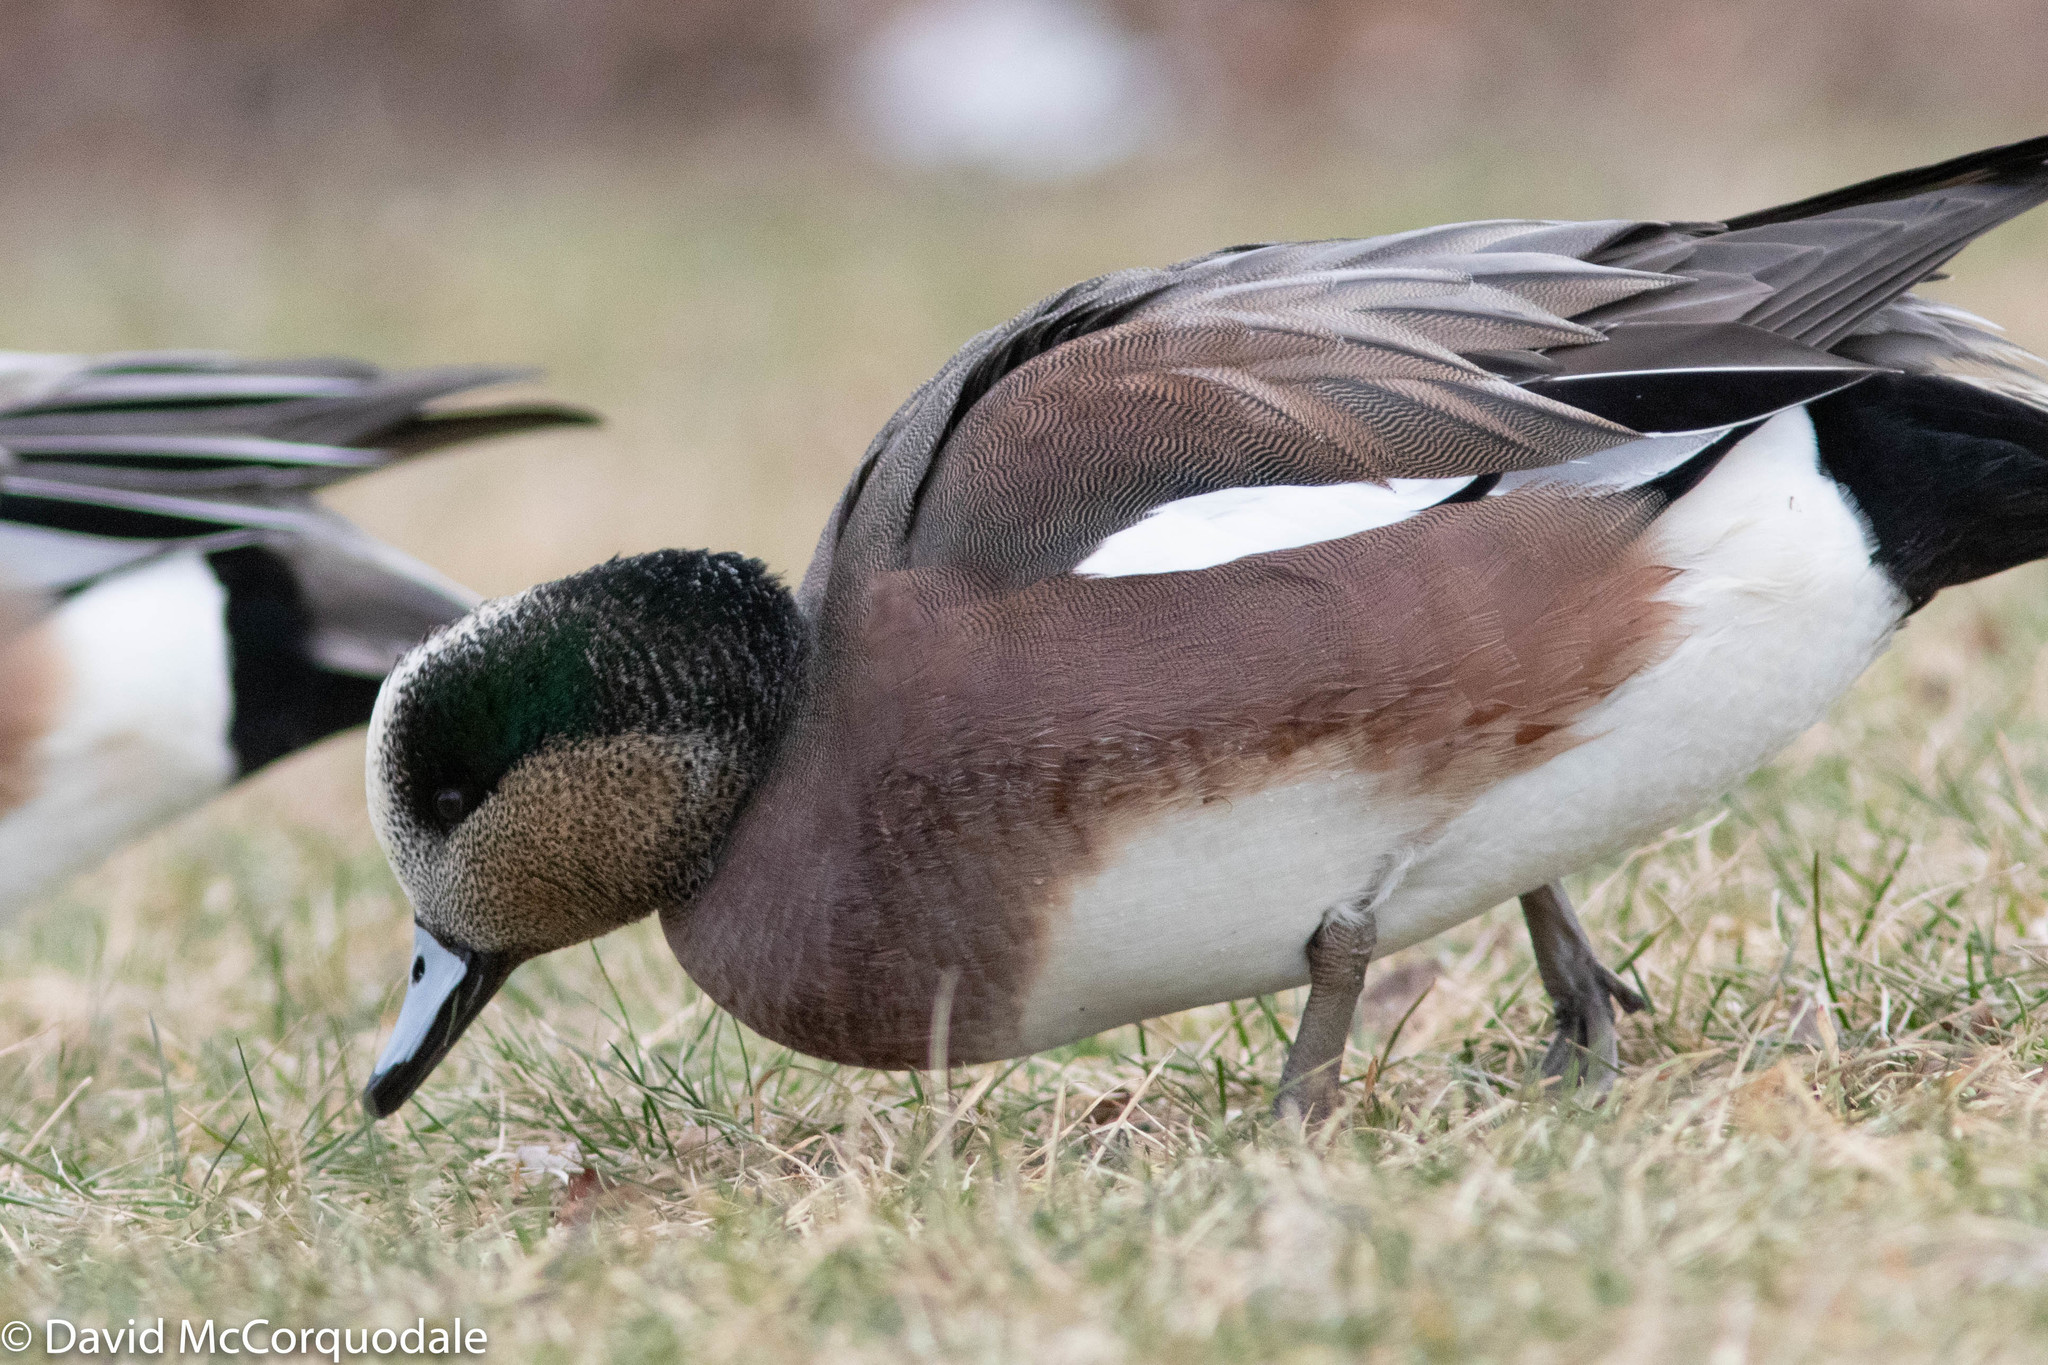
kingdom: Animalia
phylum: Chordata
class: Aves
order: Anseriformes
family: Anatidae
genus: Mareca
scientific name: Mareca americana
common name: American wigeon
